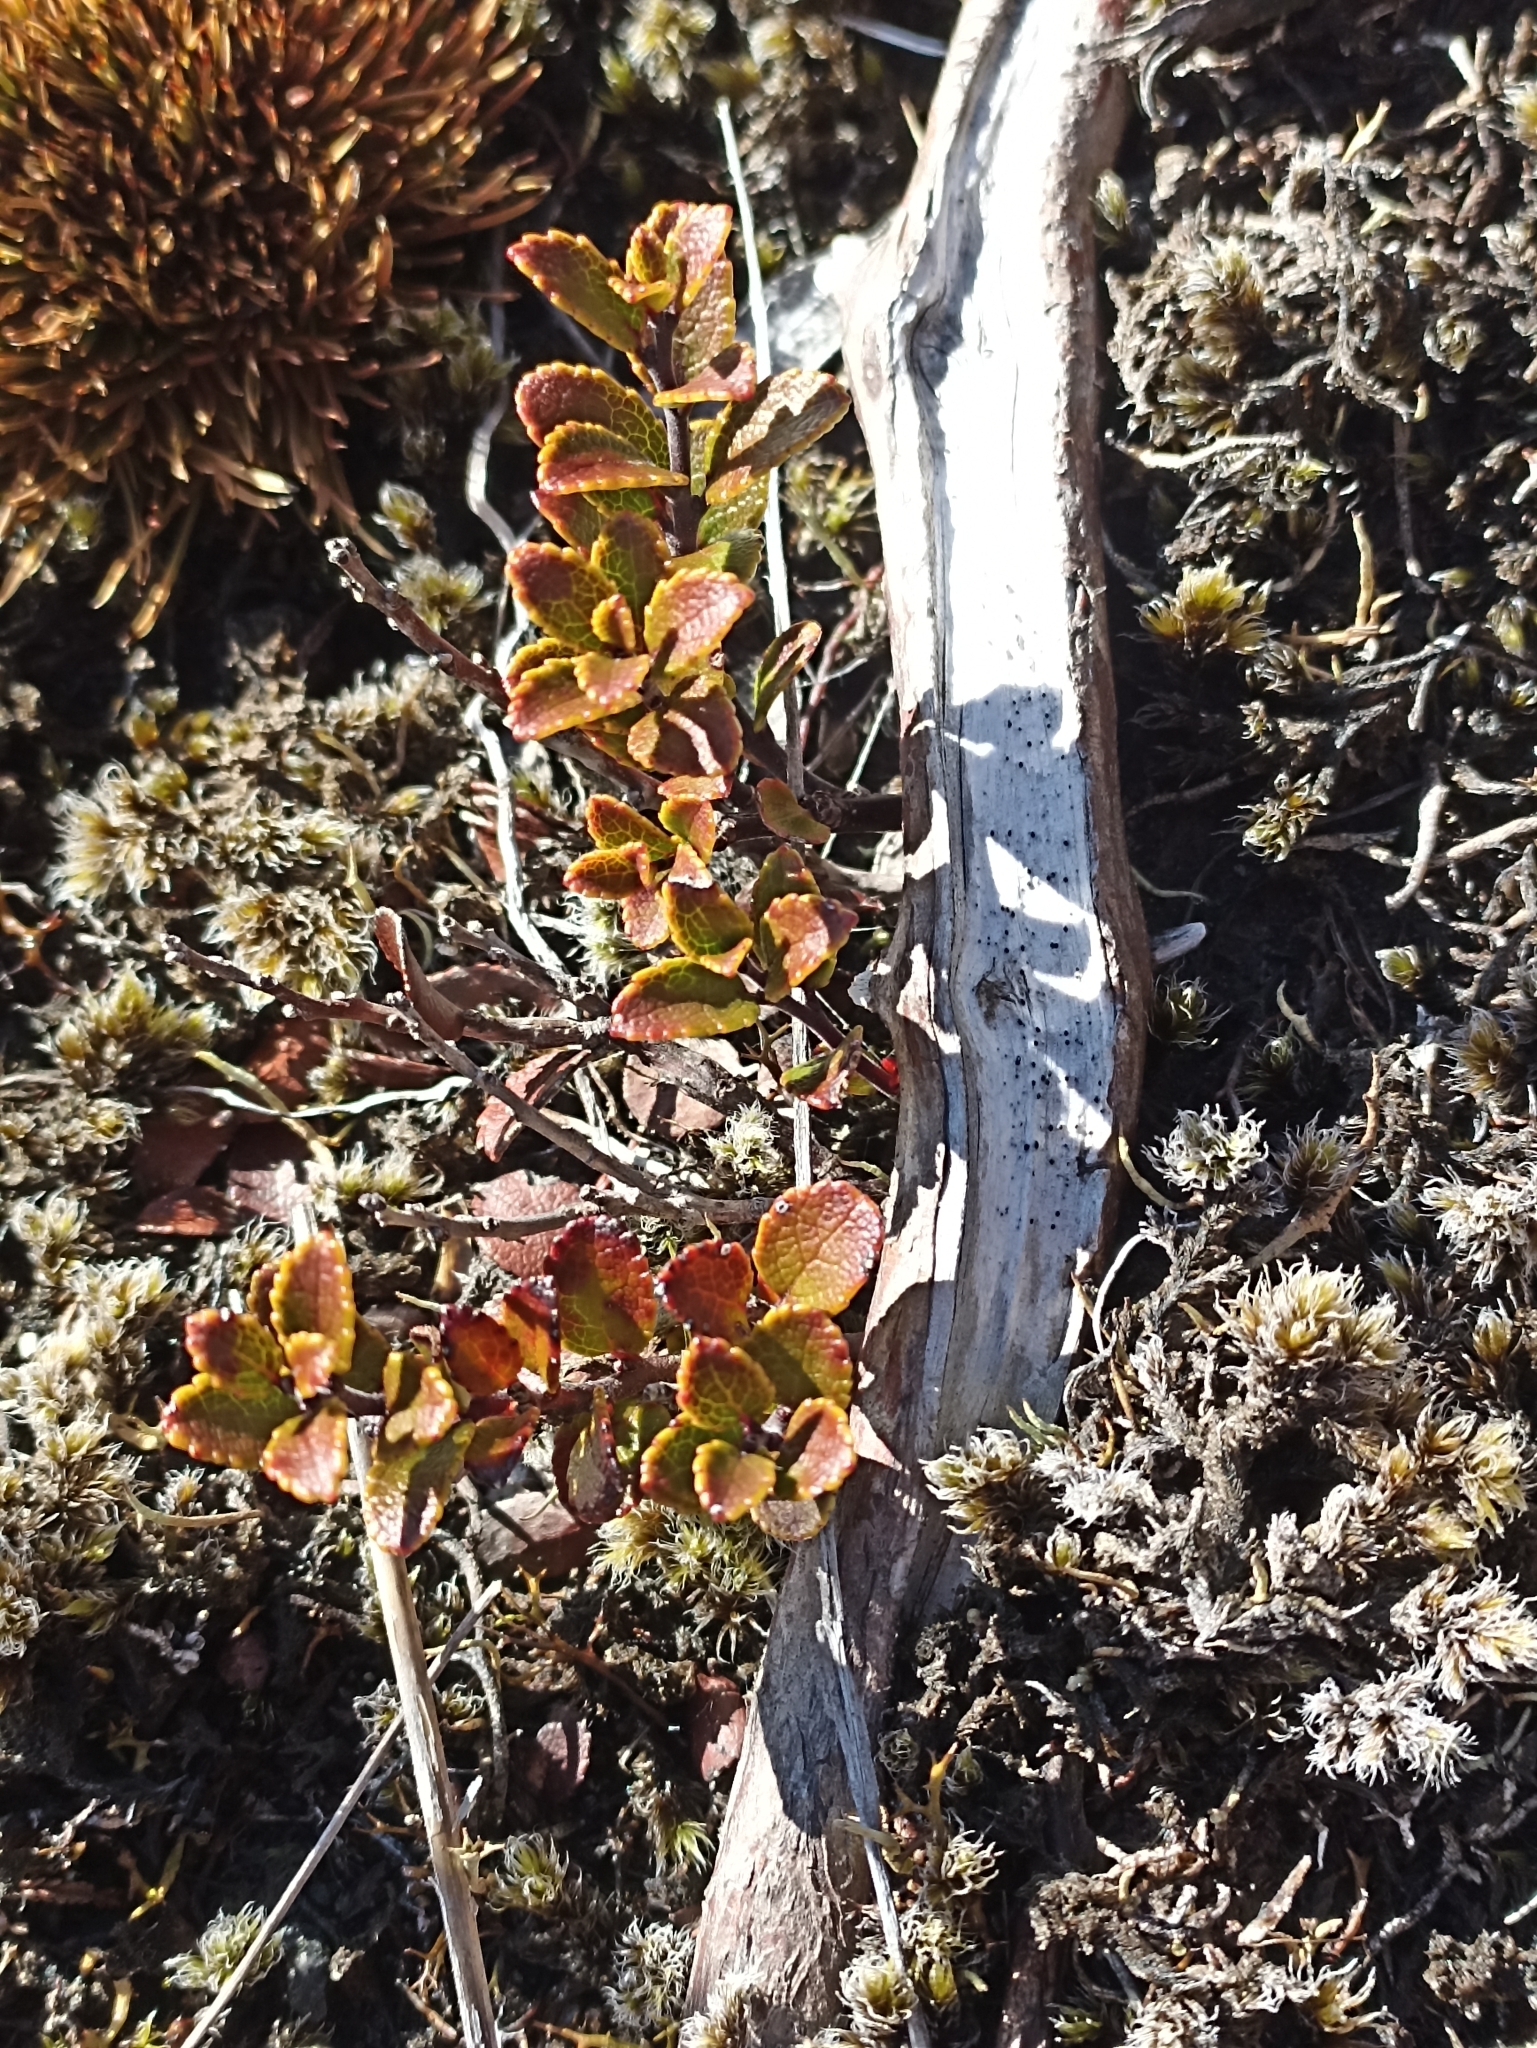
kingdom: Plantae
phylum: Tracheophyta
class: Magnoliopsida
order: Ericales
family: Ericaceae
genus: Gaultheria
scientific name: Gaultheria colensoi
